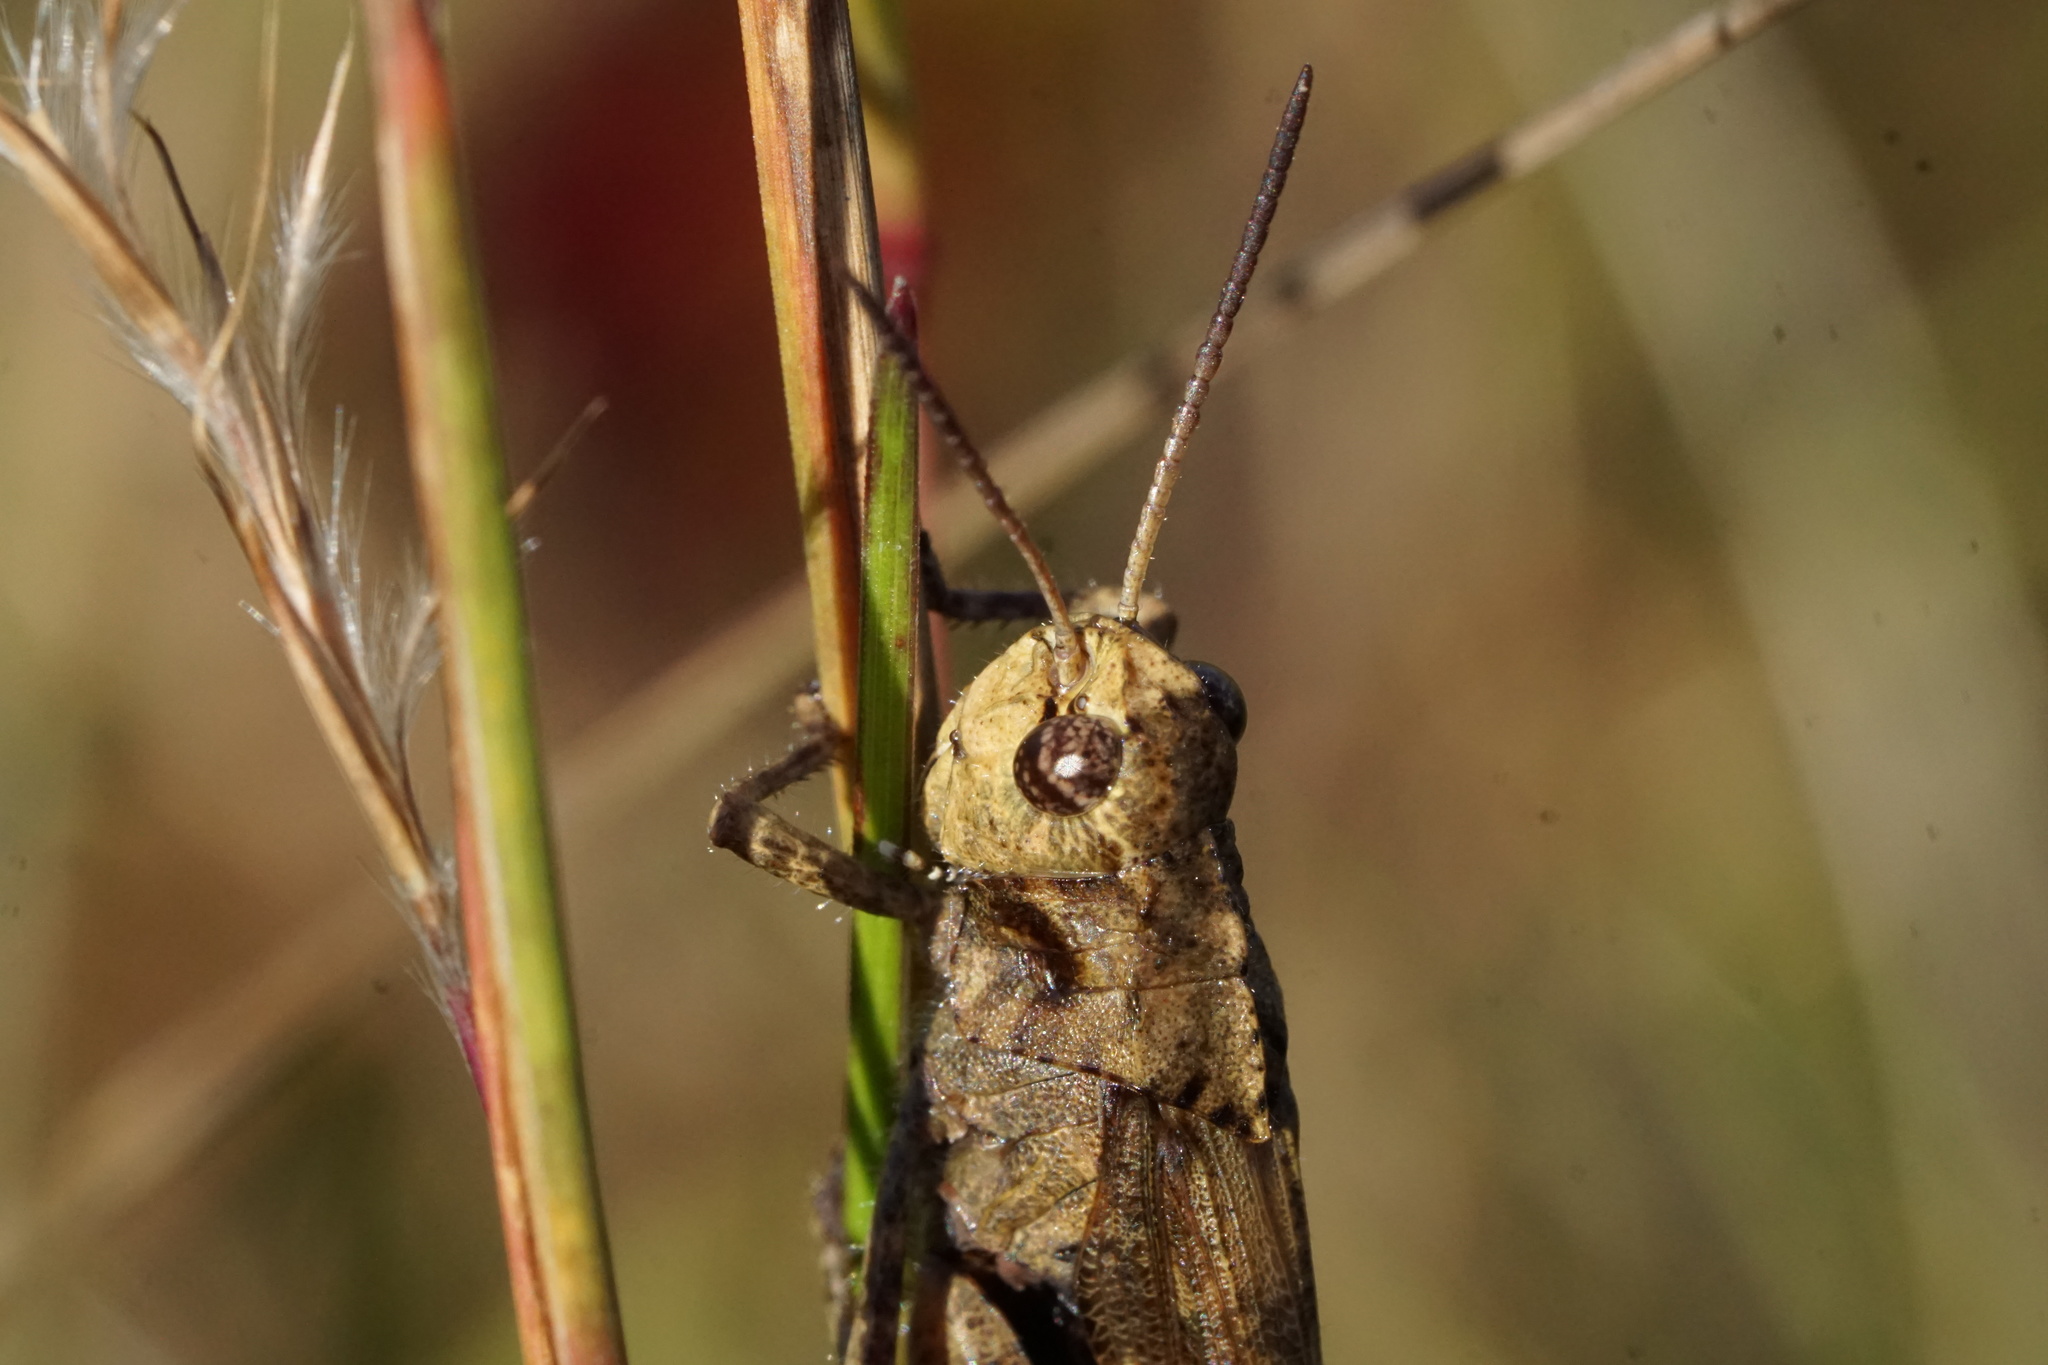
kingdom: Animalia
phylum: Arthropoda
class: Insecta
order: Orthoptera
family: Acrididae
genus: Encoptolophus
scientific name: Encoptolophus sordidus
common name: Dusky grasshopper
